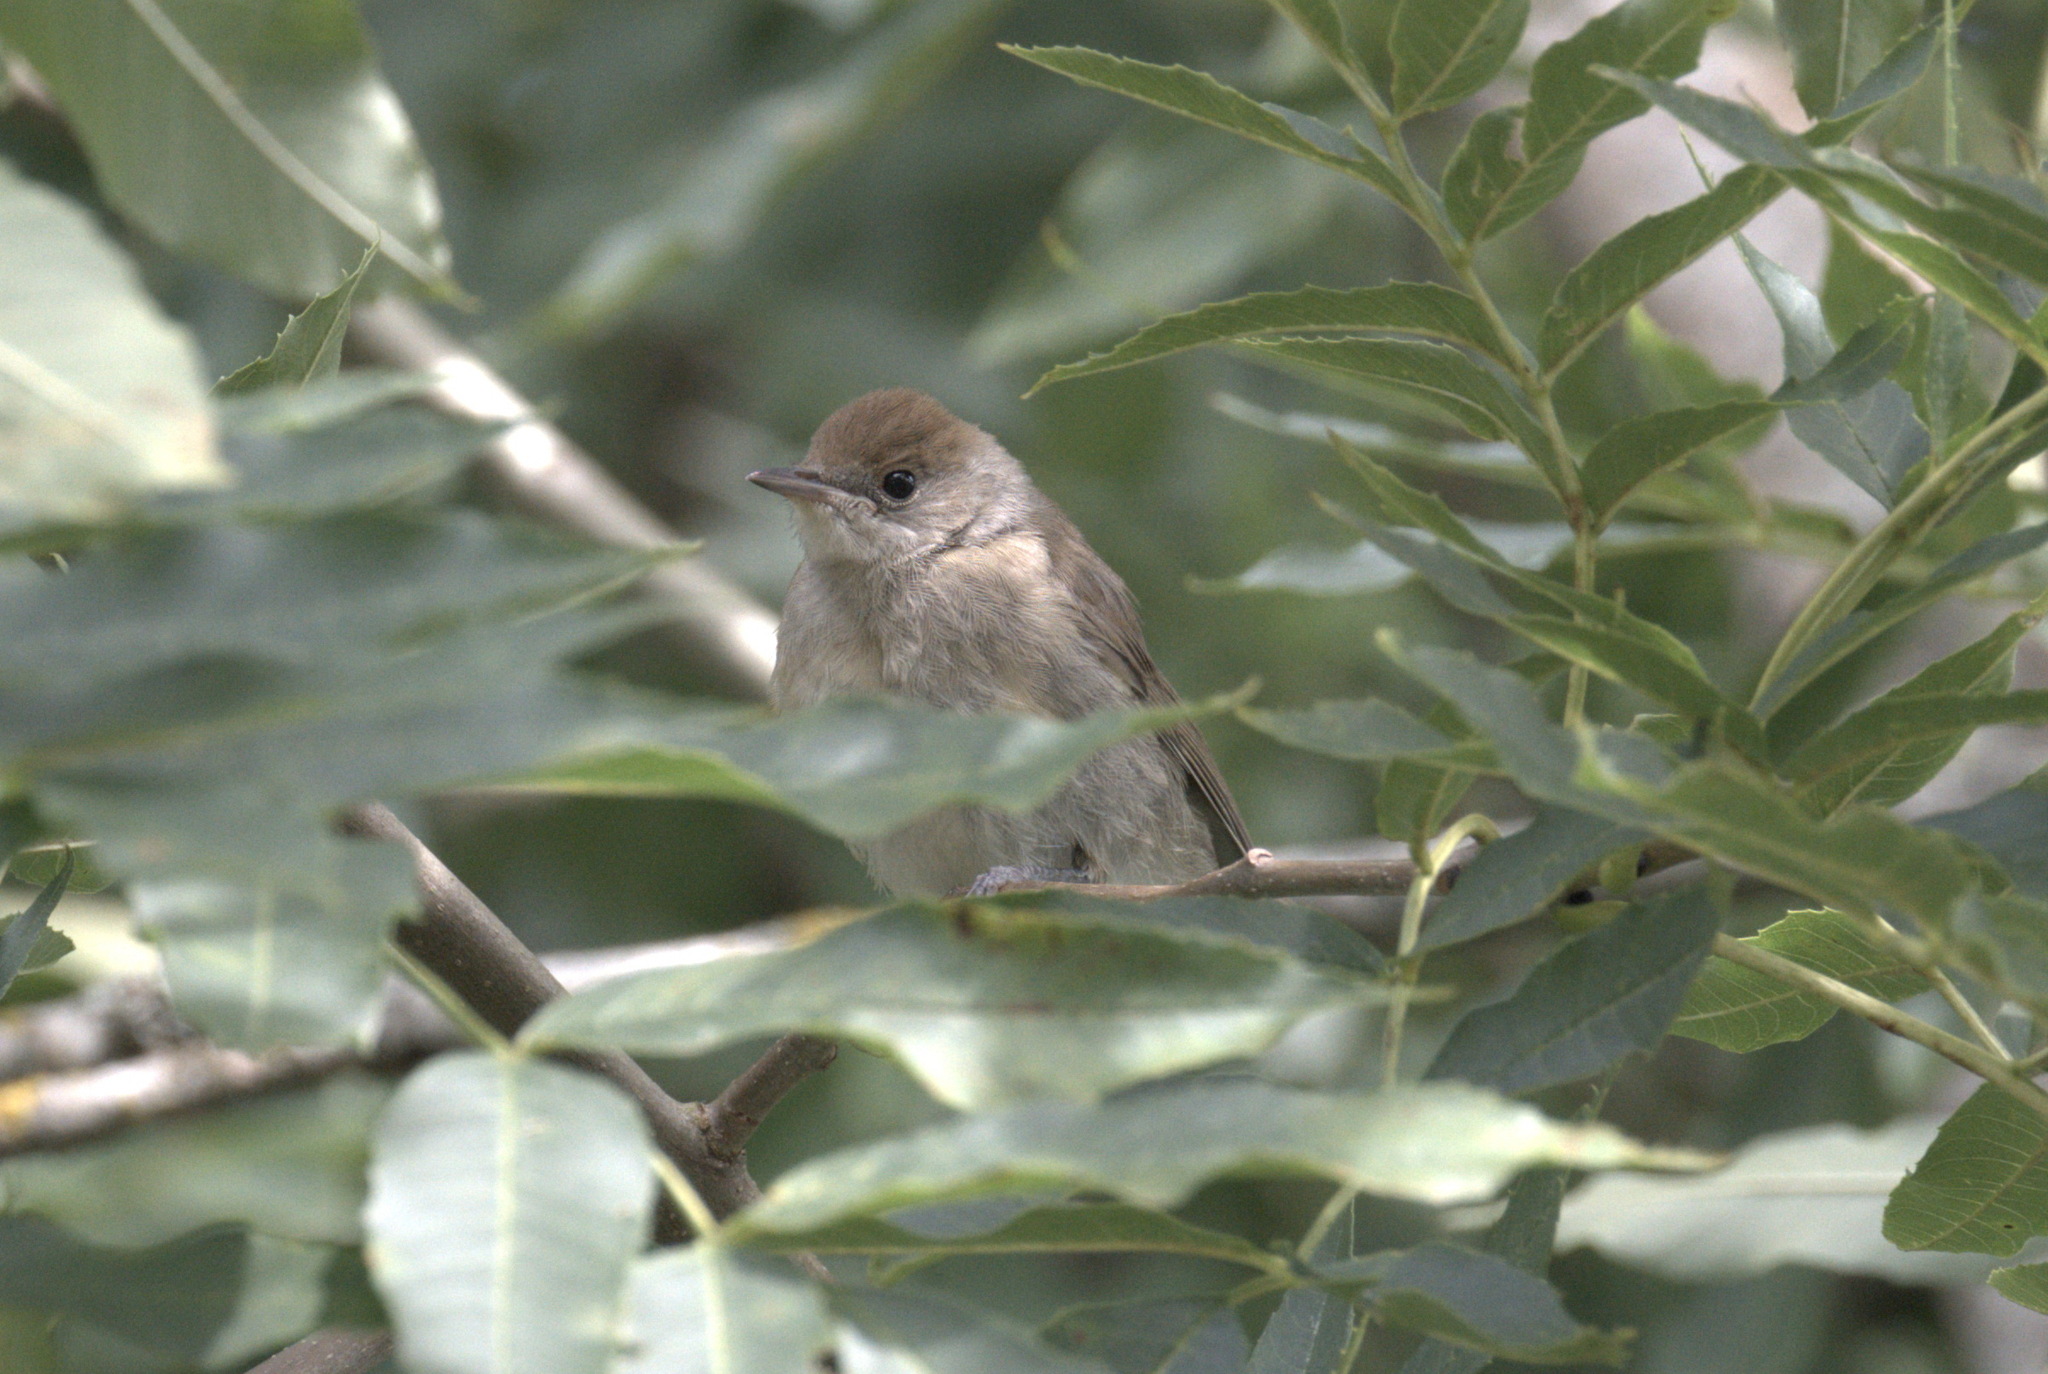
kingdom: Animalia
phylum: Chordata
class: Aves
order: Passeriformes
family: Sylviidae
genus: Sylvia
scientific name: Sylvia atricapilla
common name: Eurasian blackcap
